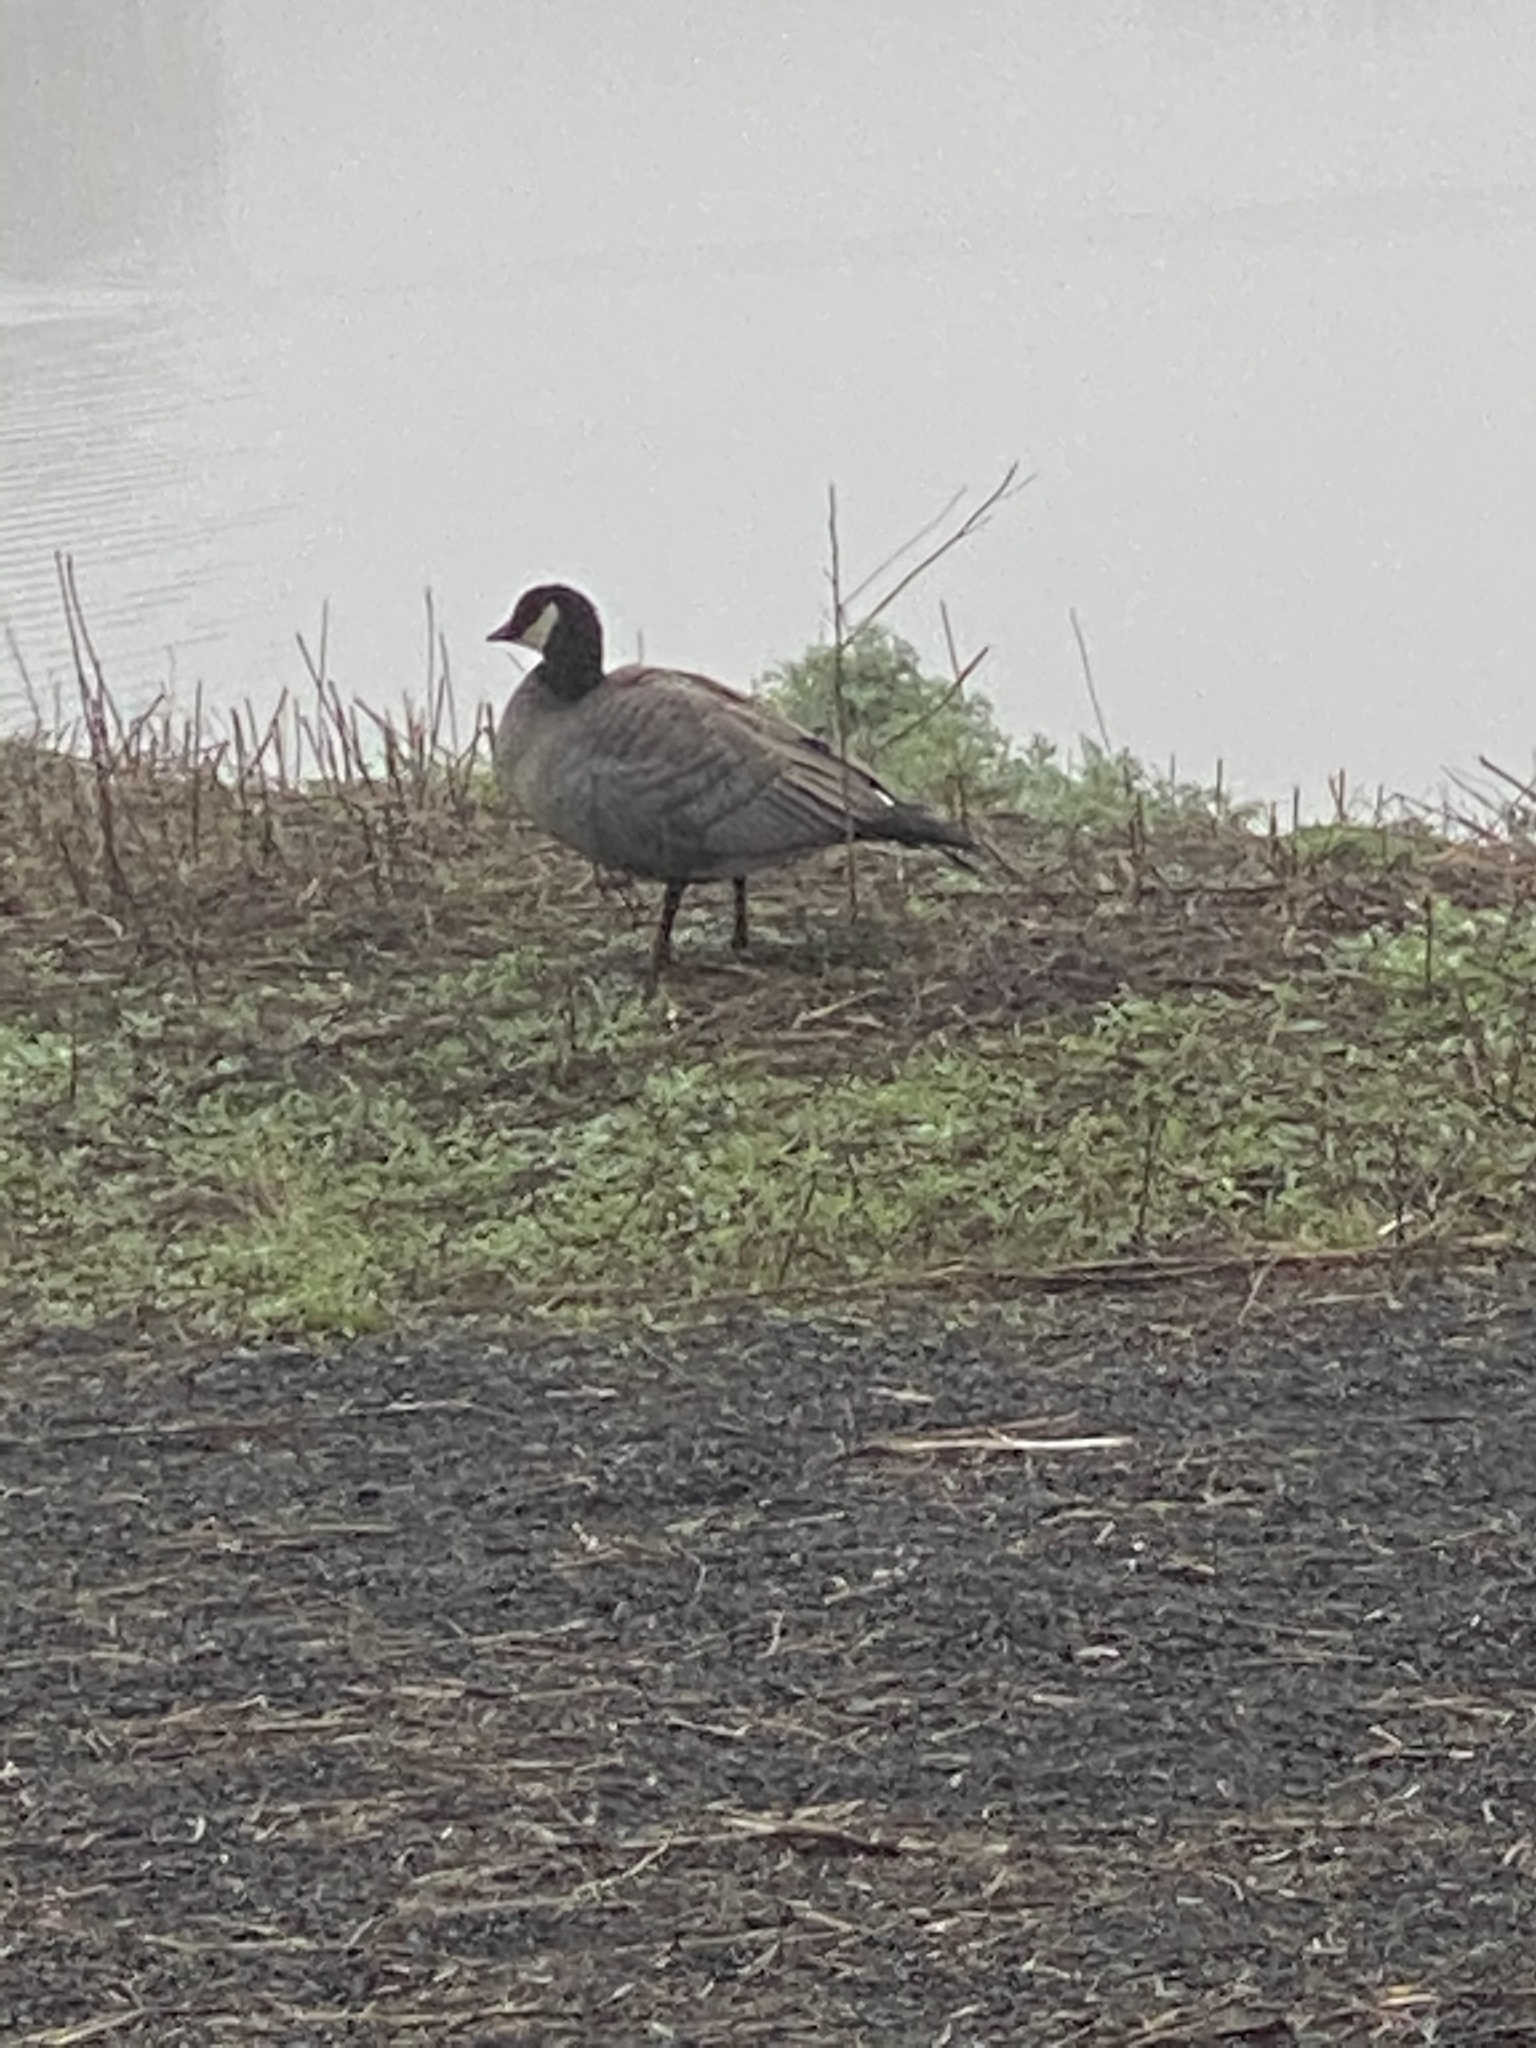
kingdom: Animalia
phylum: Chordata
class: Aves
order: Anseriformes
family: Anatidae
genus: Branta
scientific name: Branta hutchinsii
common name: Cackling goose
